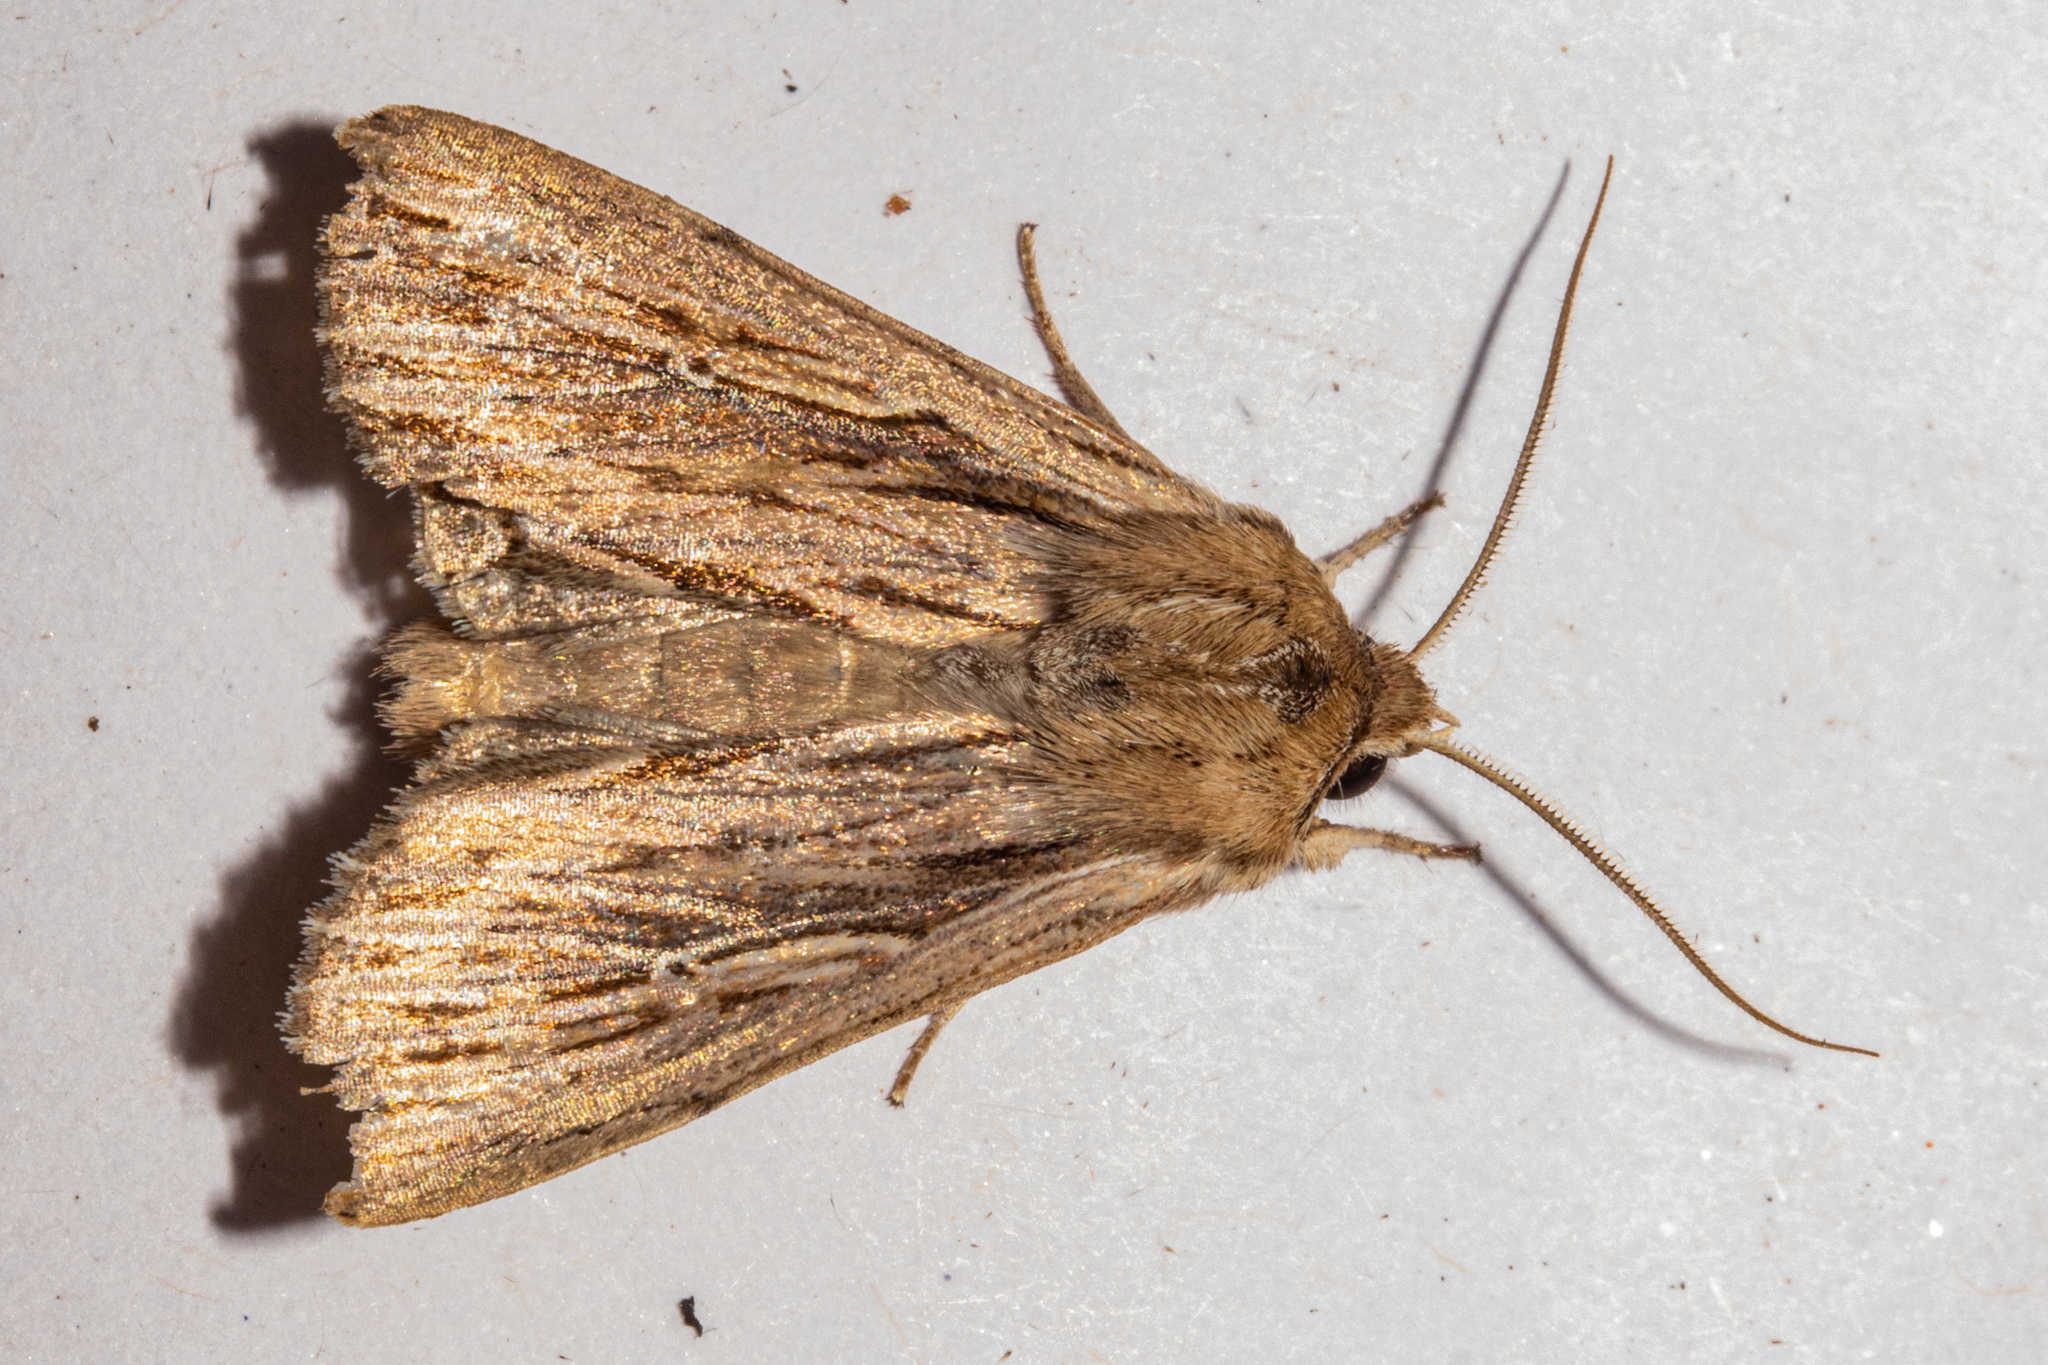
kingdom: Animalia
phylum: Arthropoda
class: Insecta
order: Lepidoptera
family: Noctuidae
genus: Persectania
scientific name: Persectania aversa
